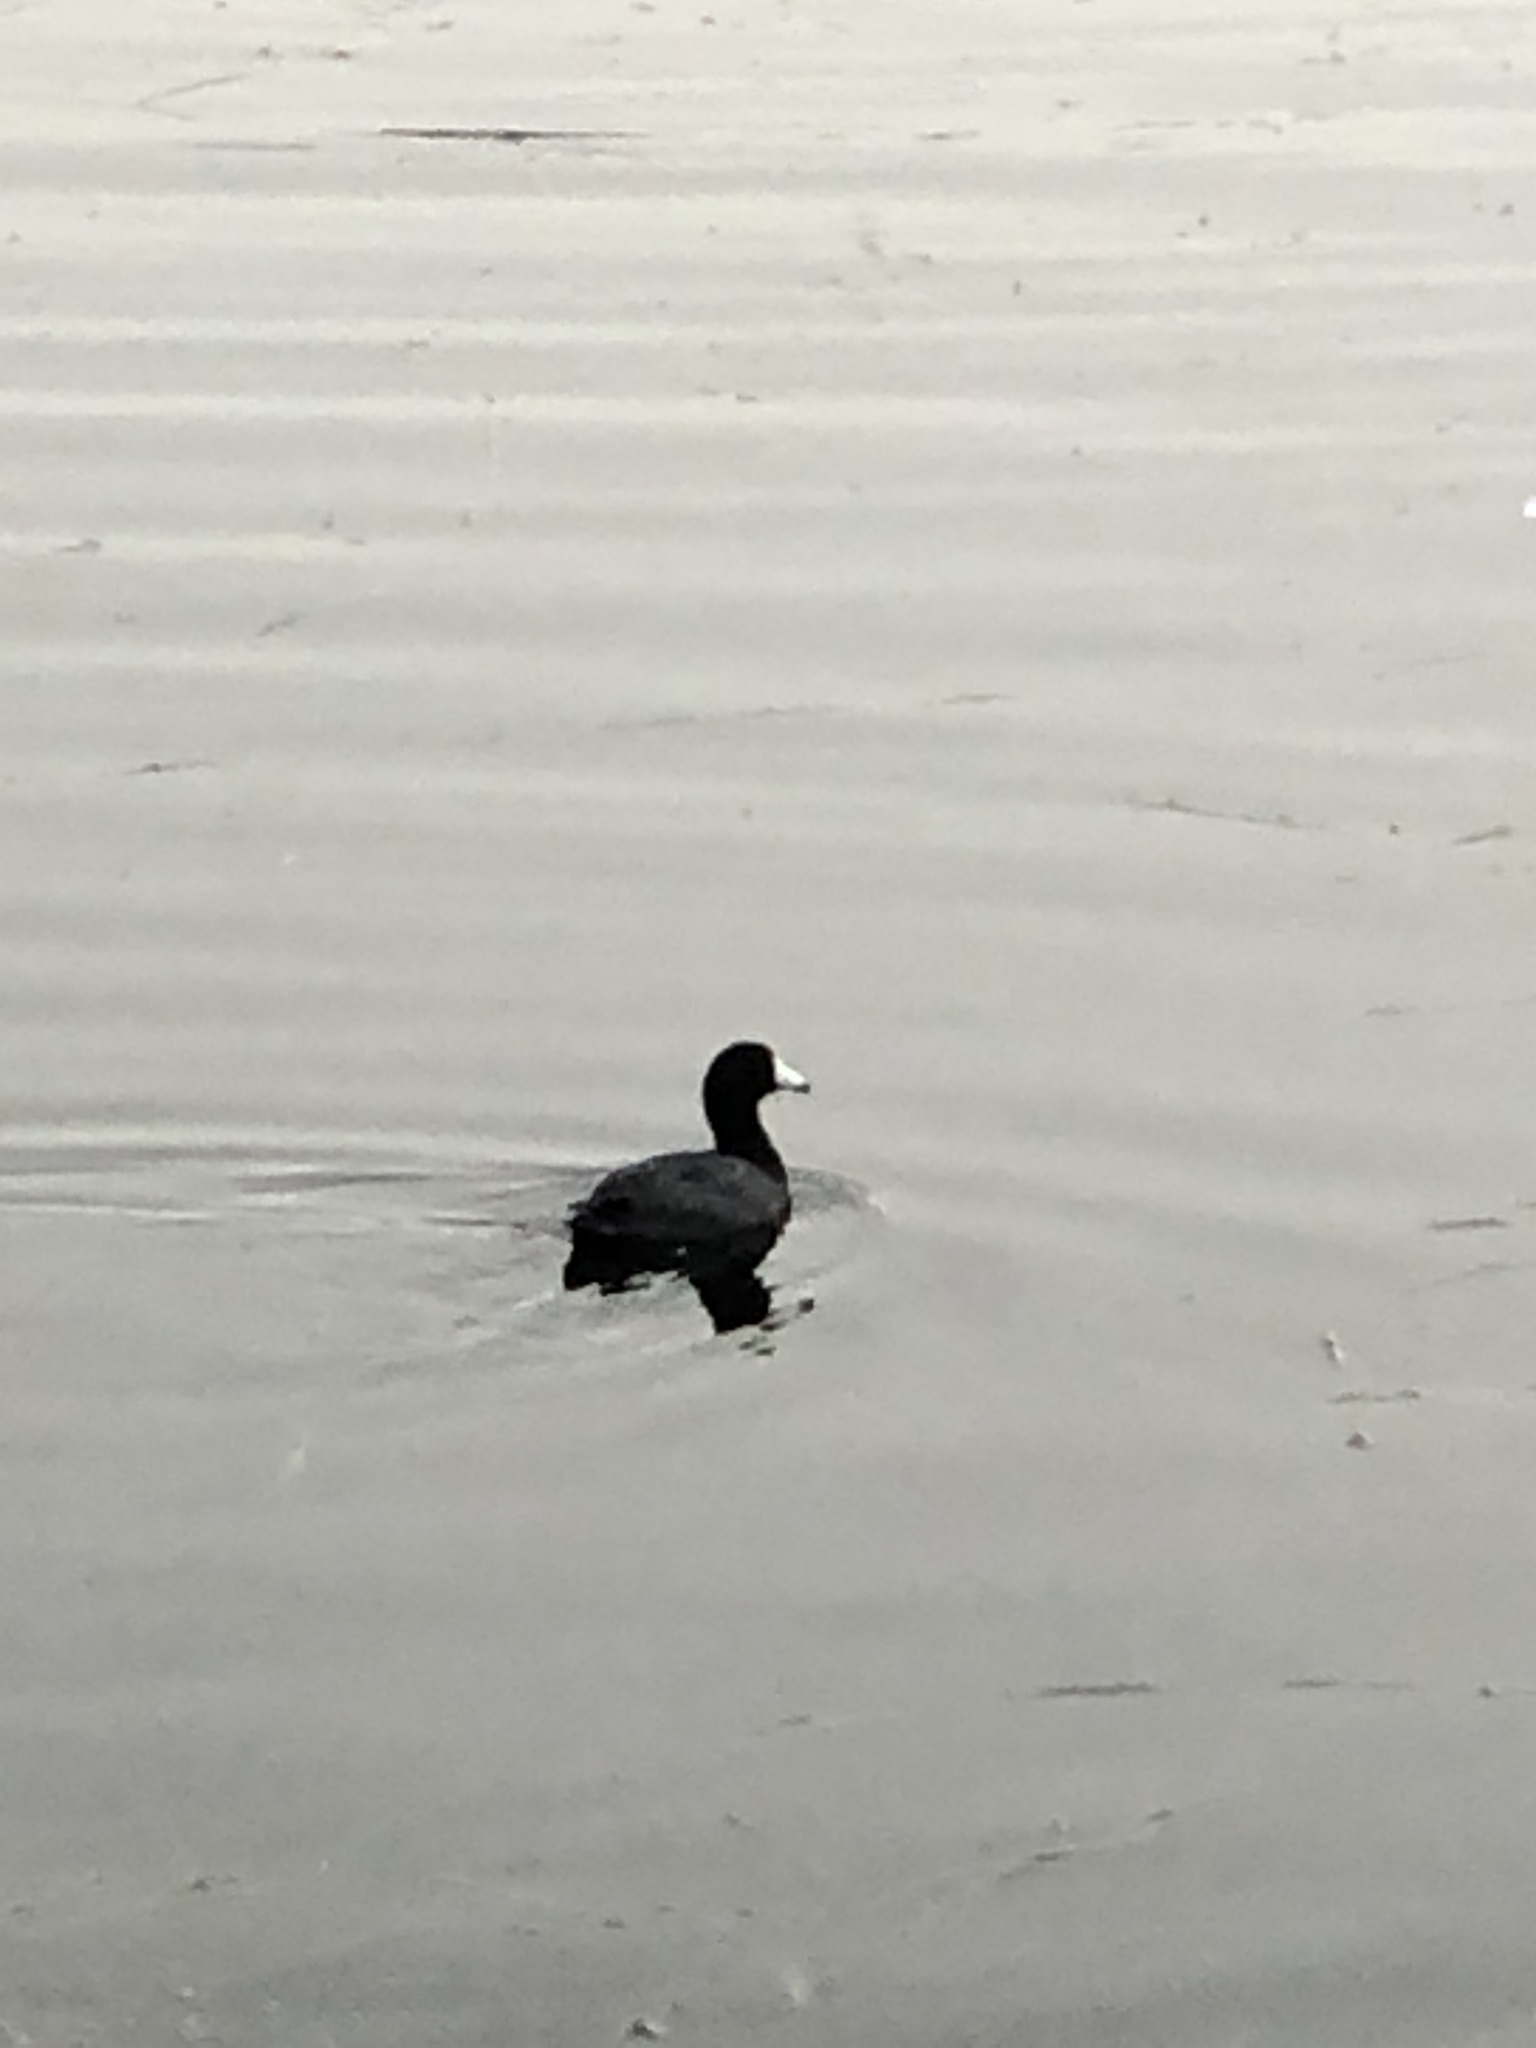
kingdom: Animalia
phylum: Chordata
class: Aves
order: Gruiformes
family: Rallidae
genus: Fulica
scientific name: Fulica americana
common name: American coot
